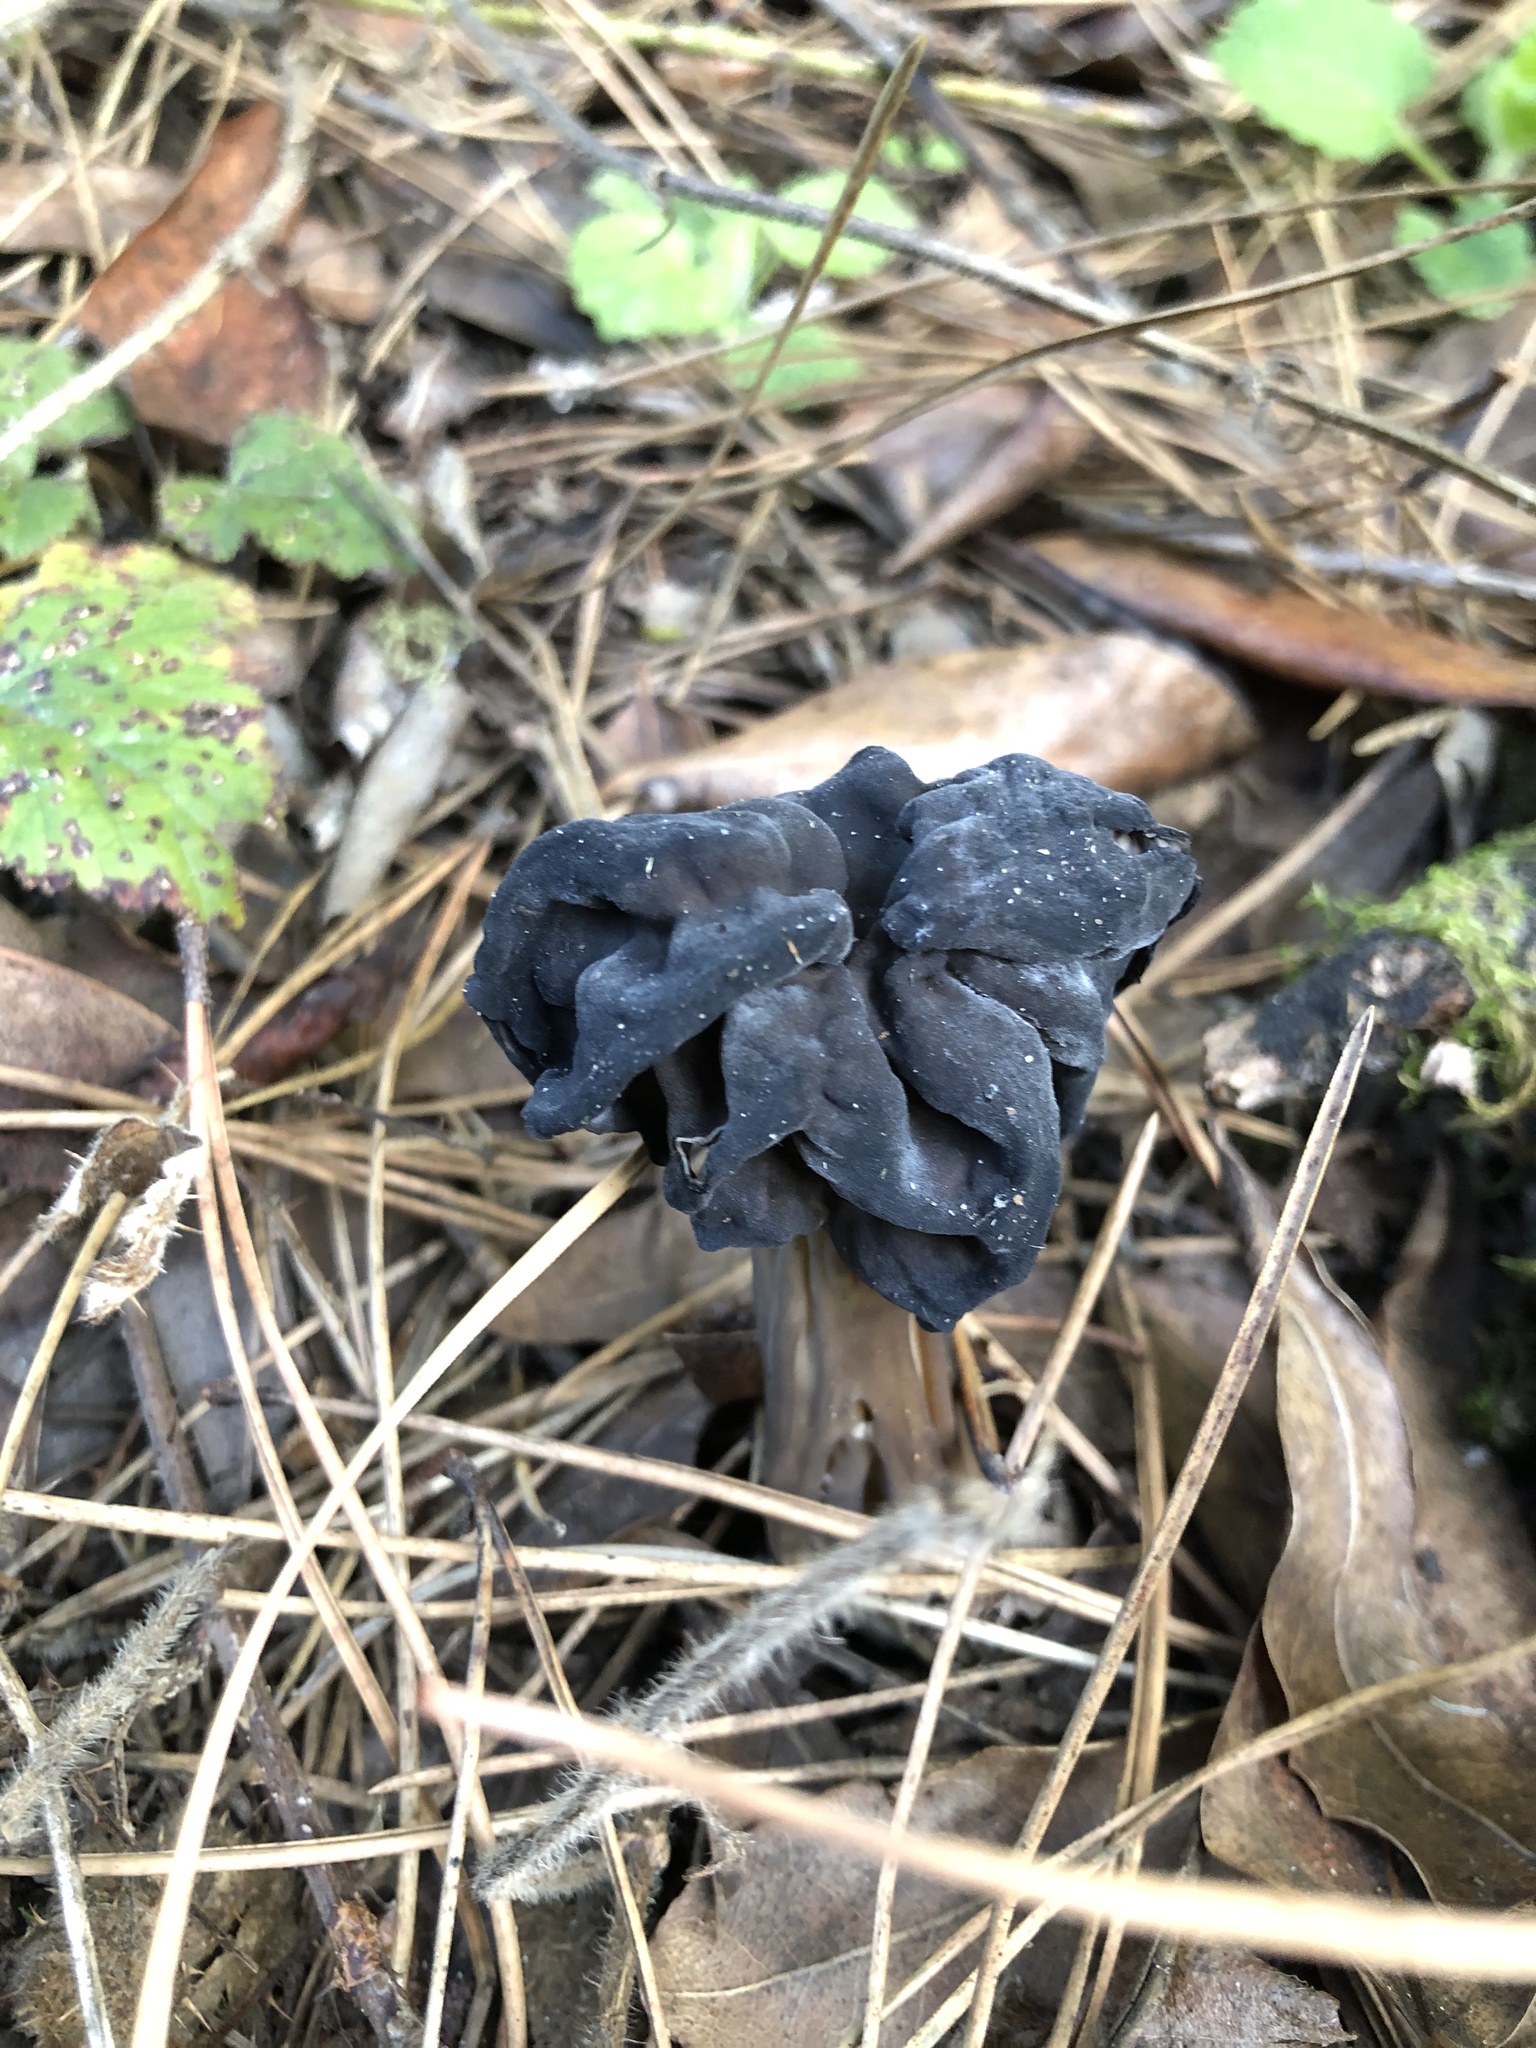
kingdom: Fungi
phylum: Ascomycota
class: Pezizomycetes
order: Pezizales
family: Helvellaceae
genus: Helvella
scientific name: Helvella vespertina
